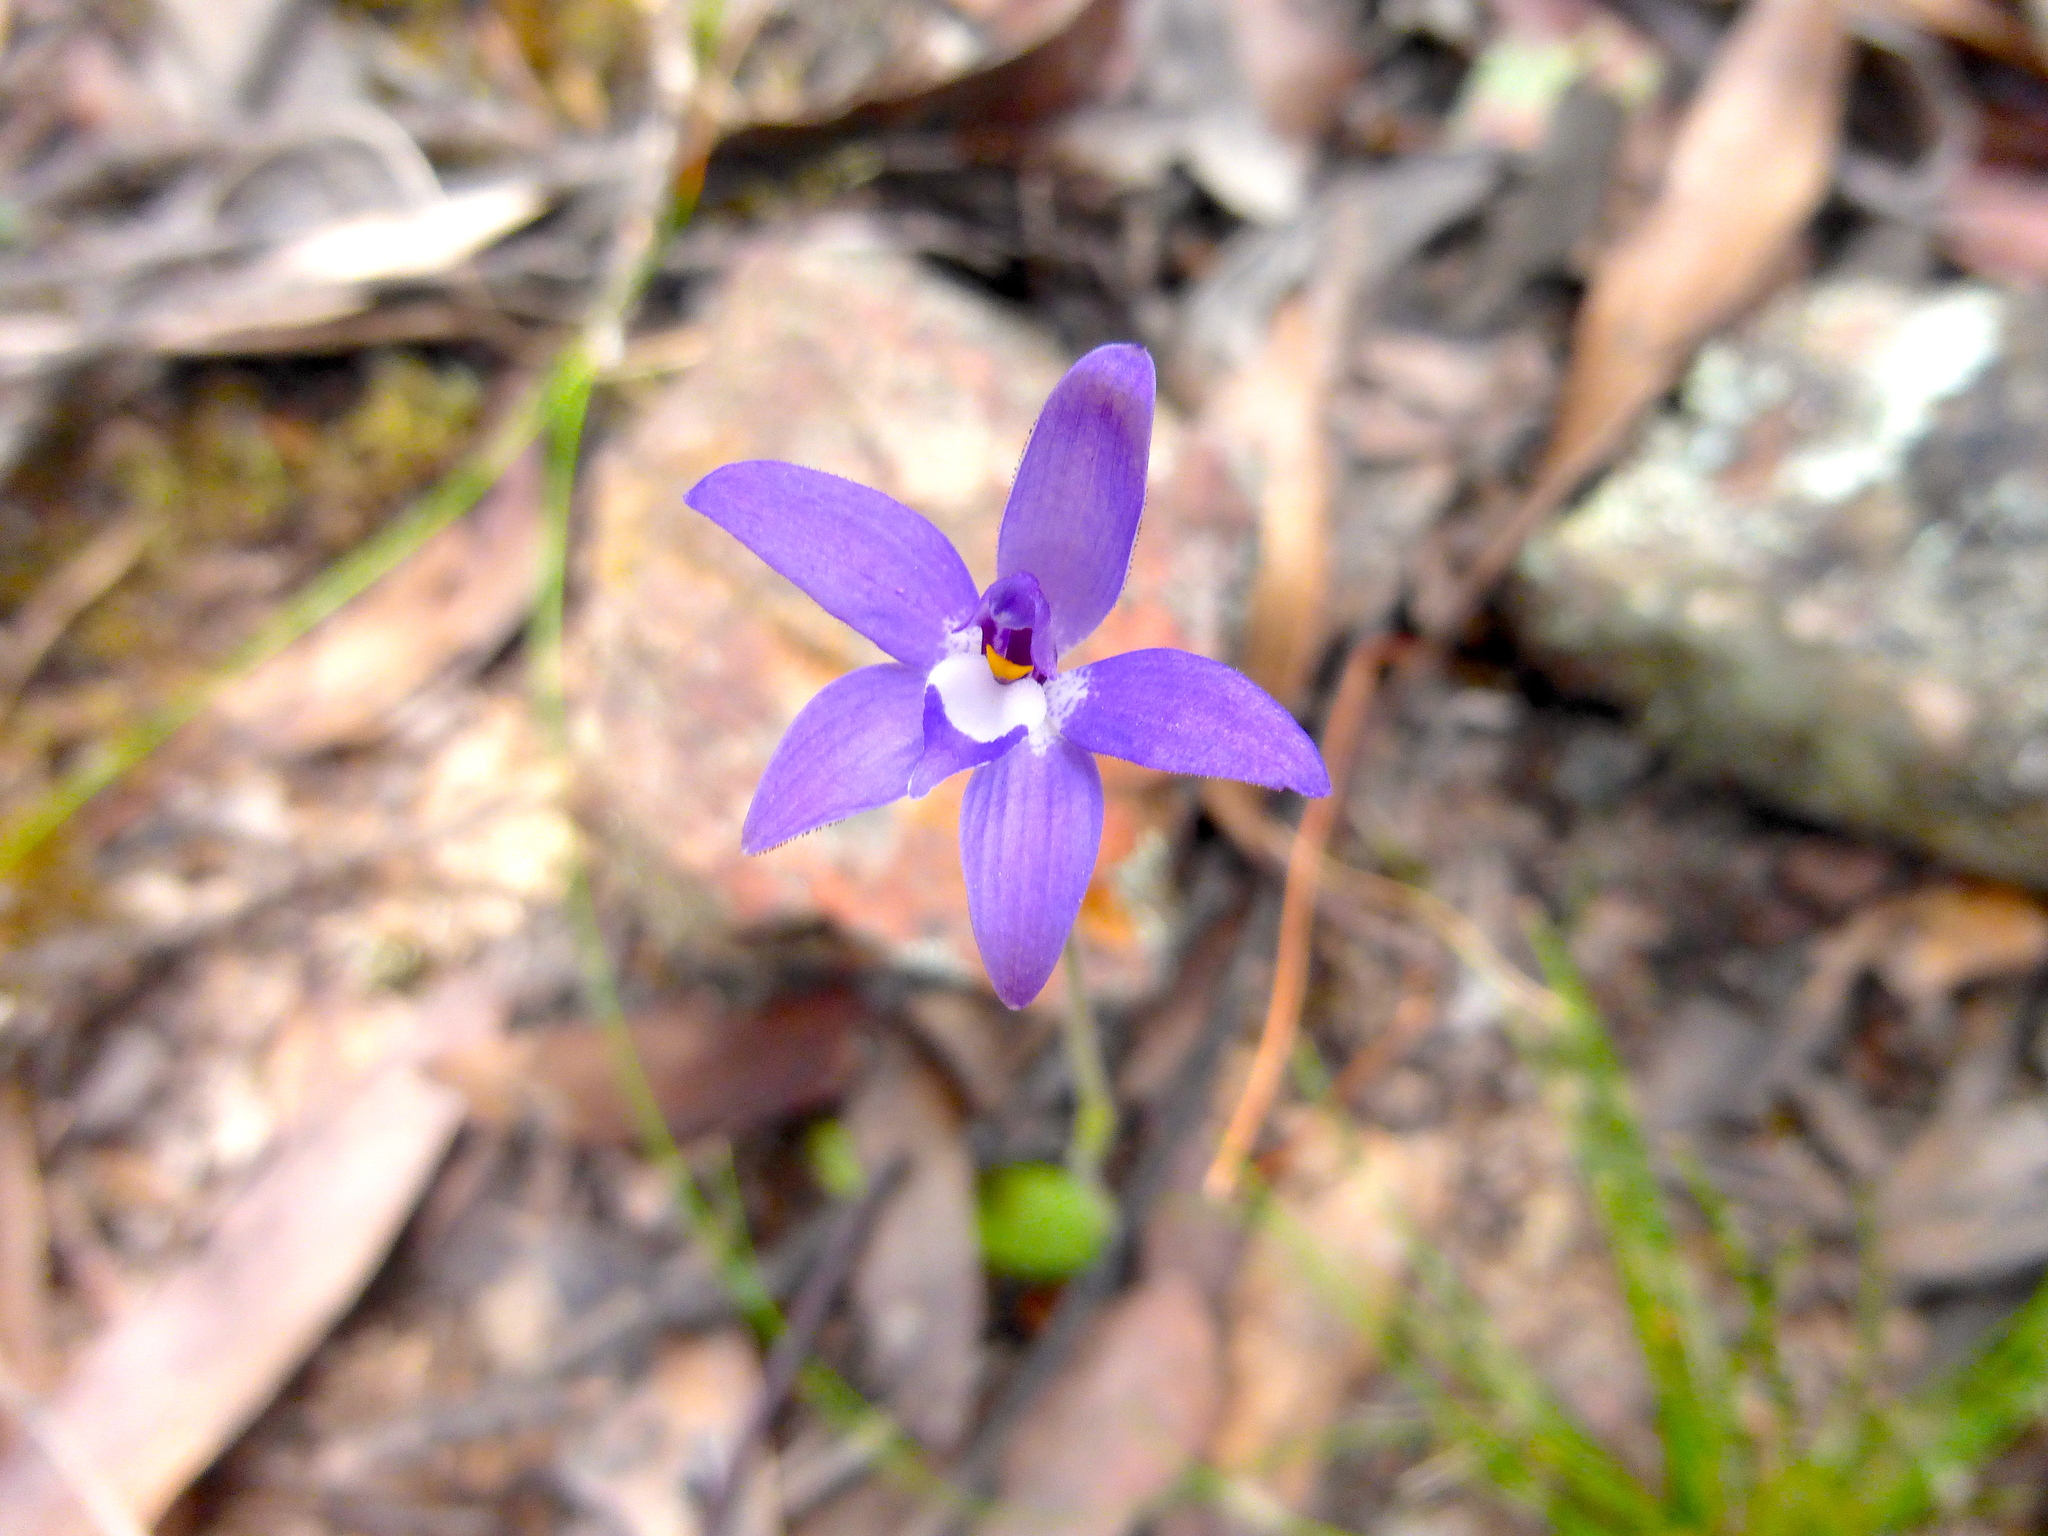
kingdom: Plantae
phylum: Tracheophyta
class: Liliopsida
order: Asparagales
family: Orchidaceae
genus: Caladenia
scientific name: Caladenia major
